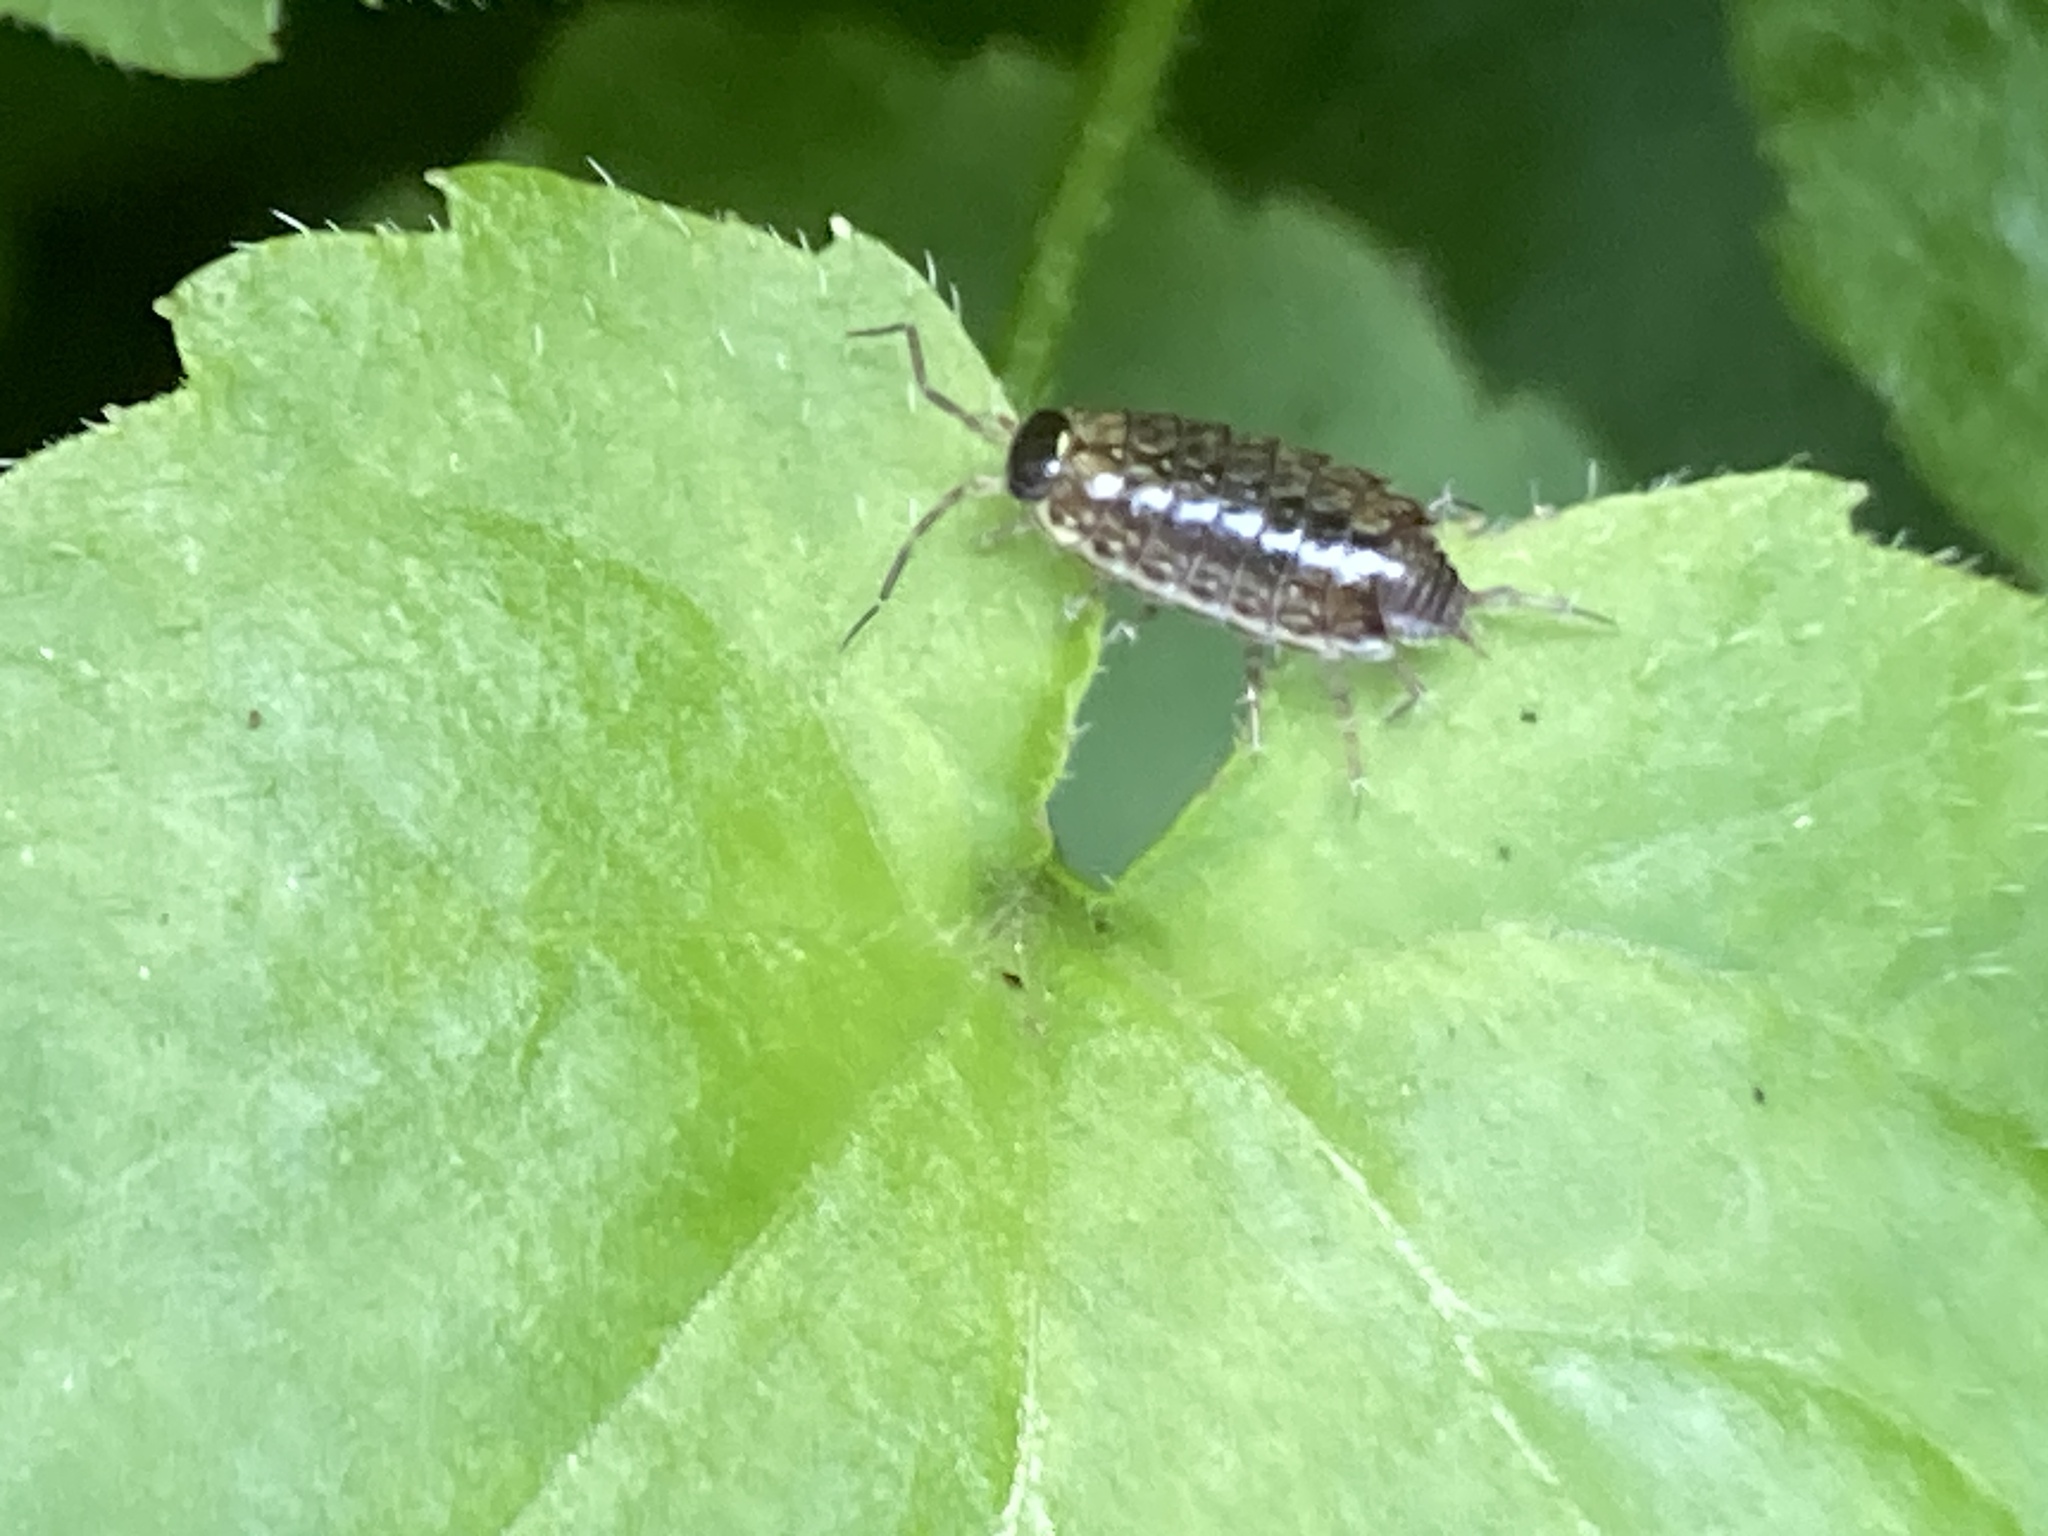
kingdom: Animalia
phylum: Arthropoda
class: Malacostraca
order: Isopoda
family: Philosciidae
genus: Philoscia
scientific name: Philoscia muscorum
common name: Common striped woodlouse
